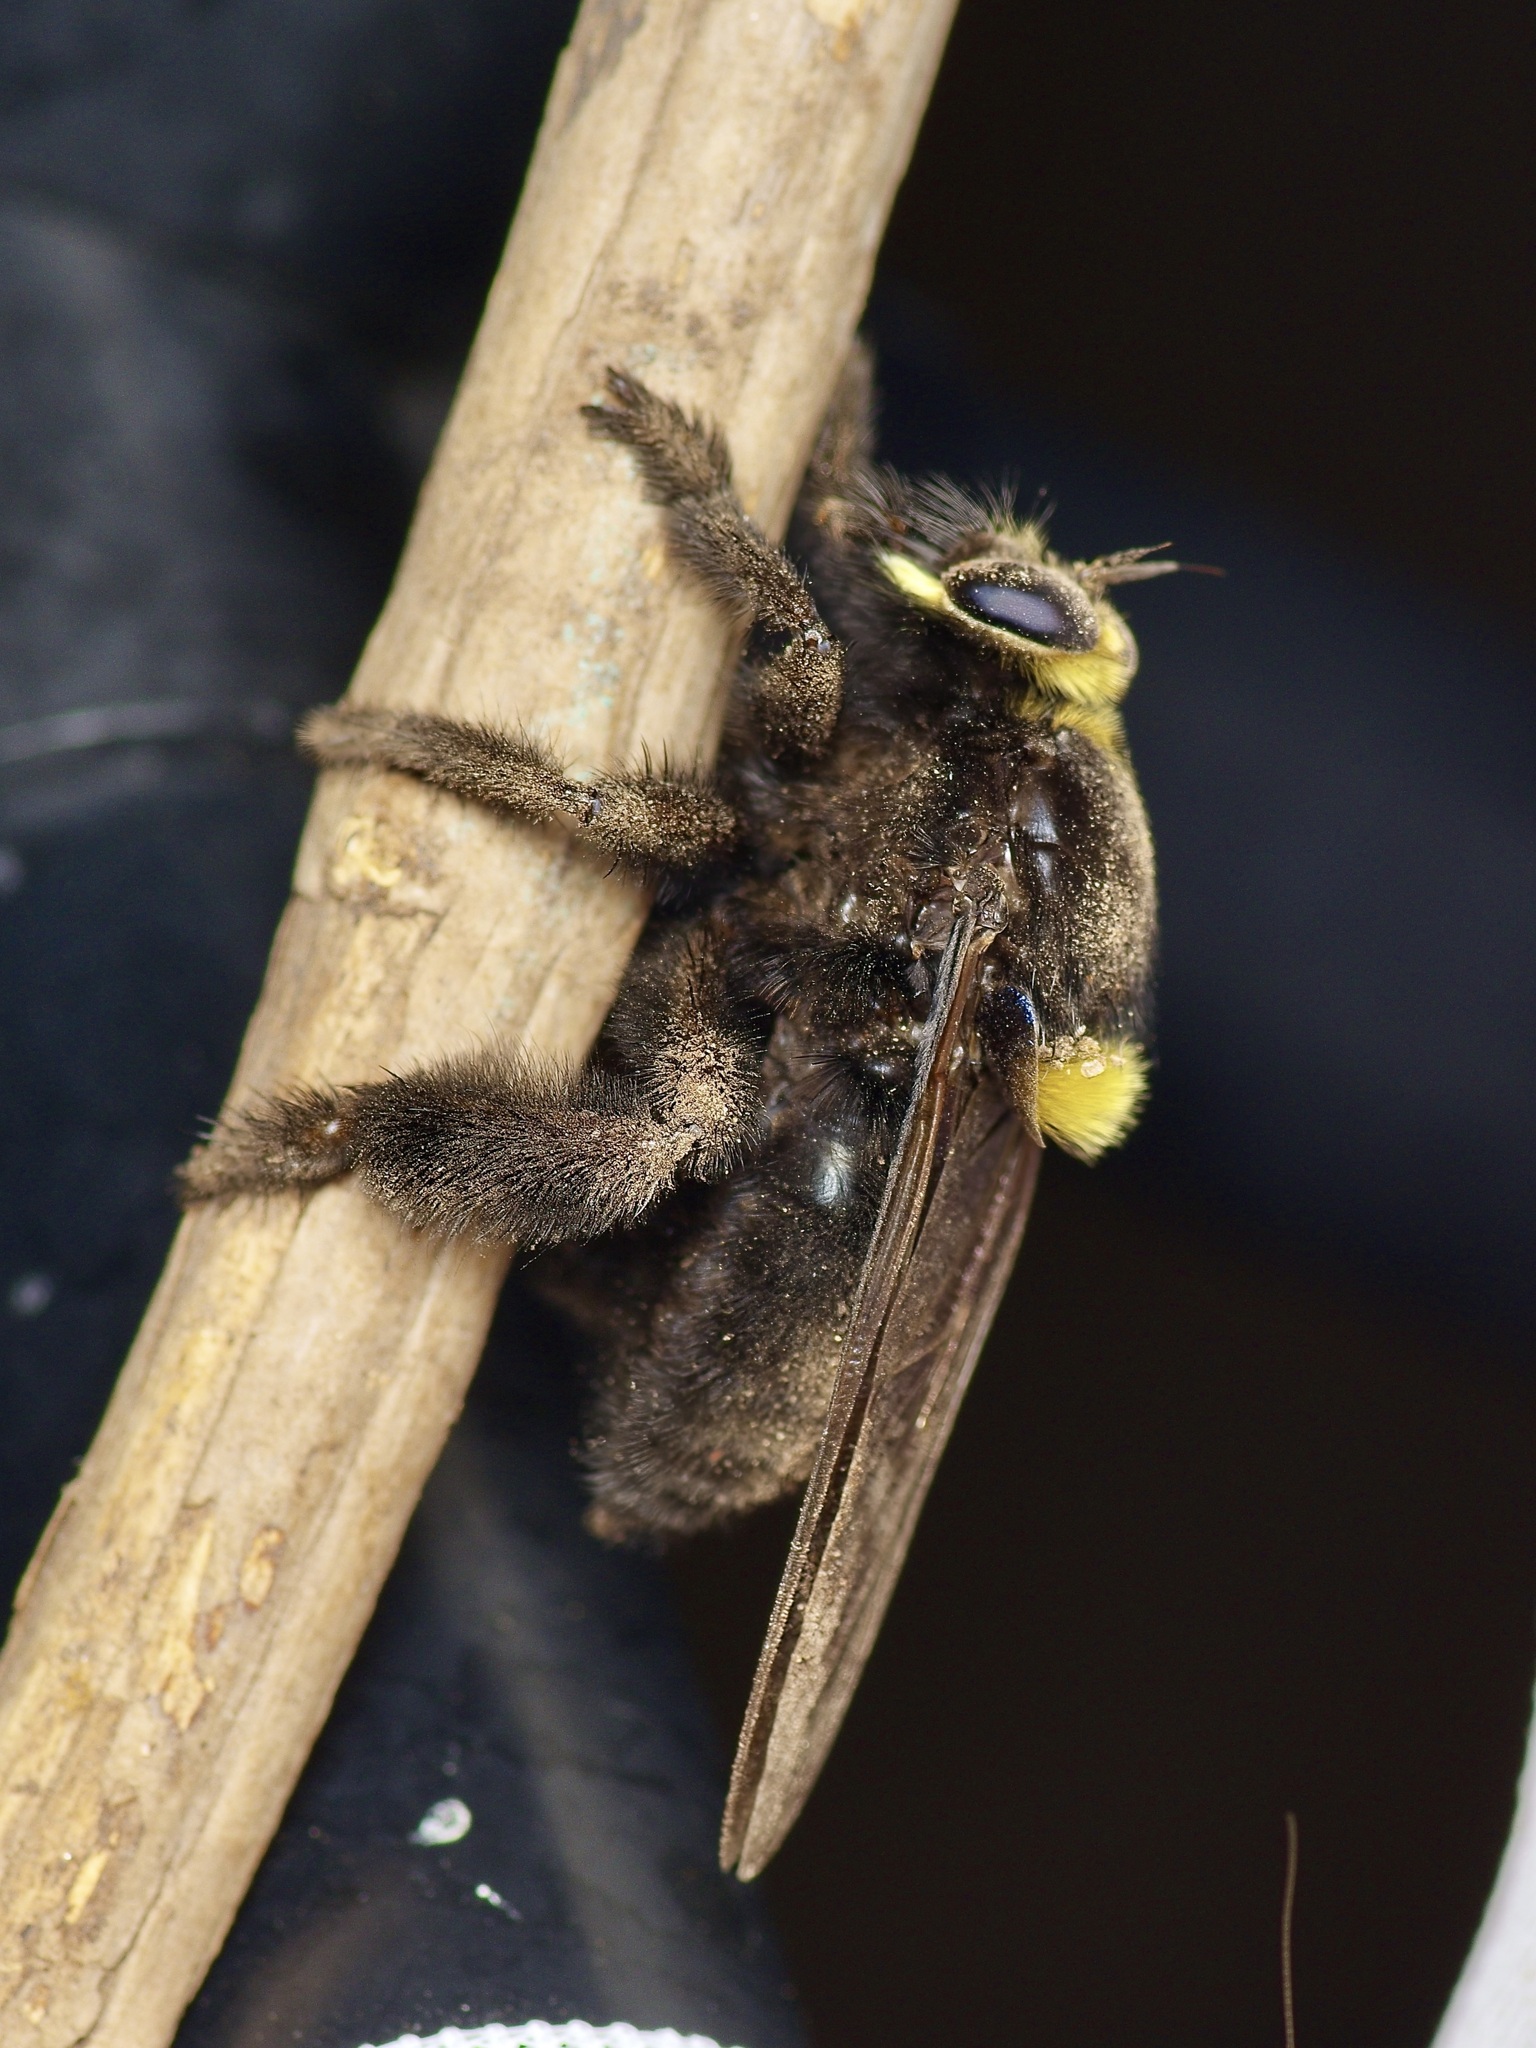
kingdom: Animalia
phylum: Arthropoda
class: Insecta
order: Diptera
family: Asilidae
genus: Mallophora
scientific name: Mallophora leschenaultii
